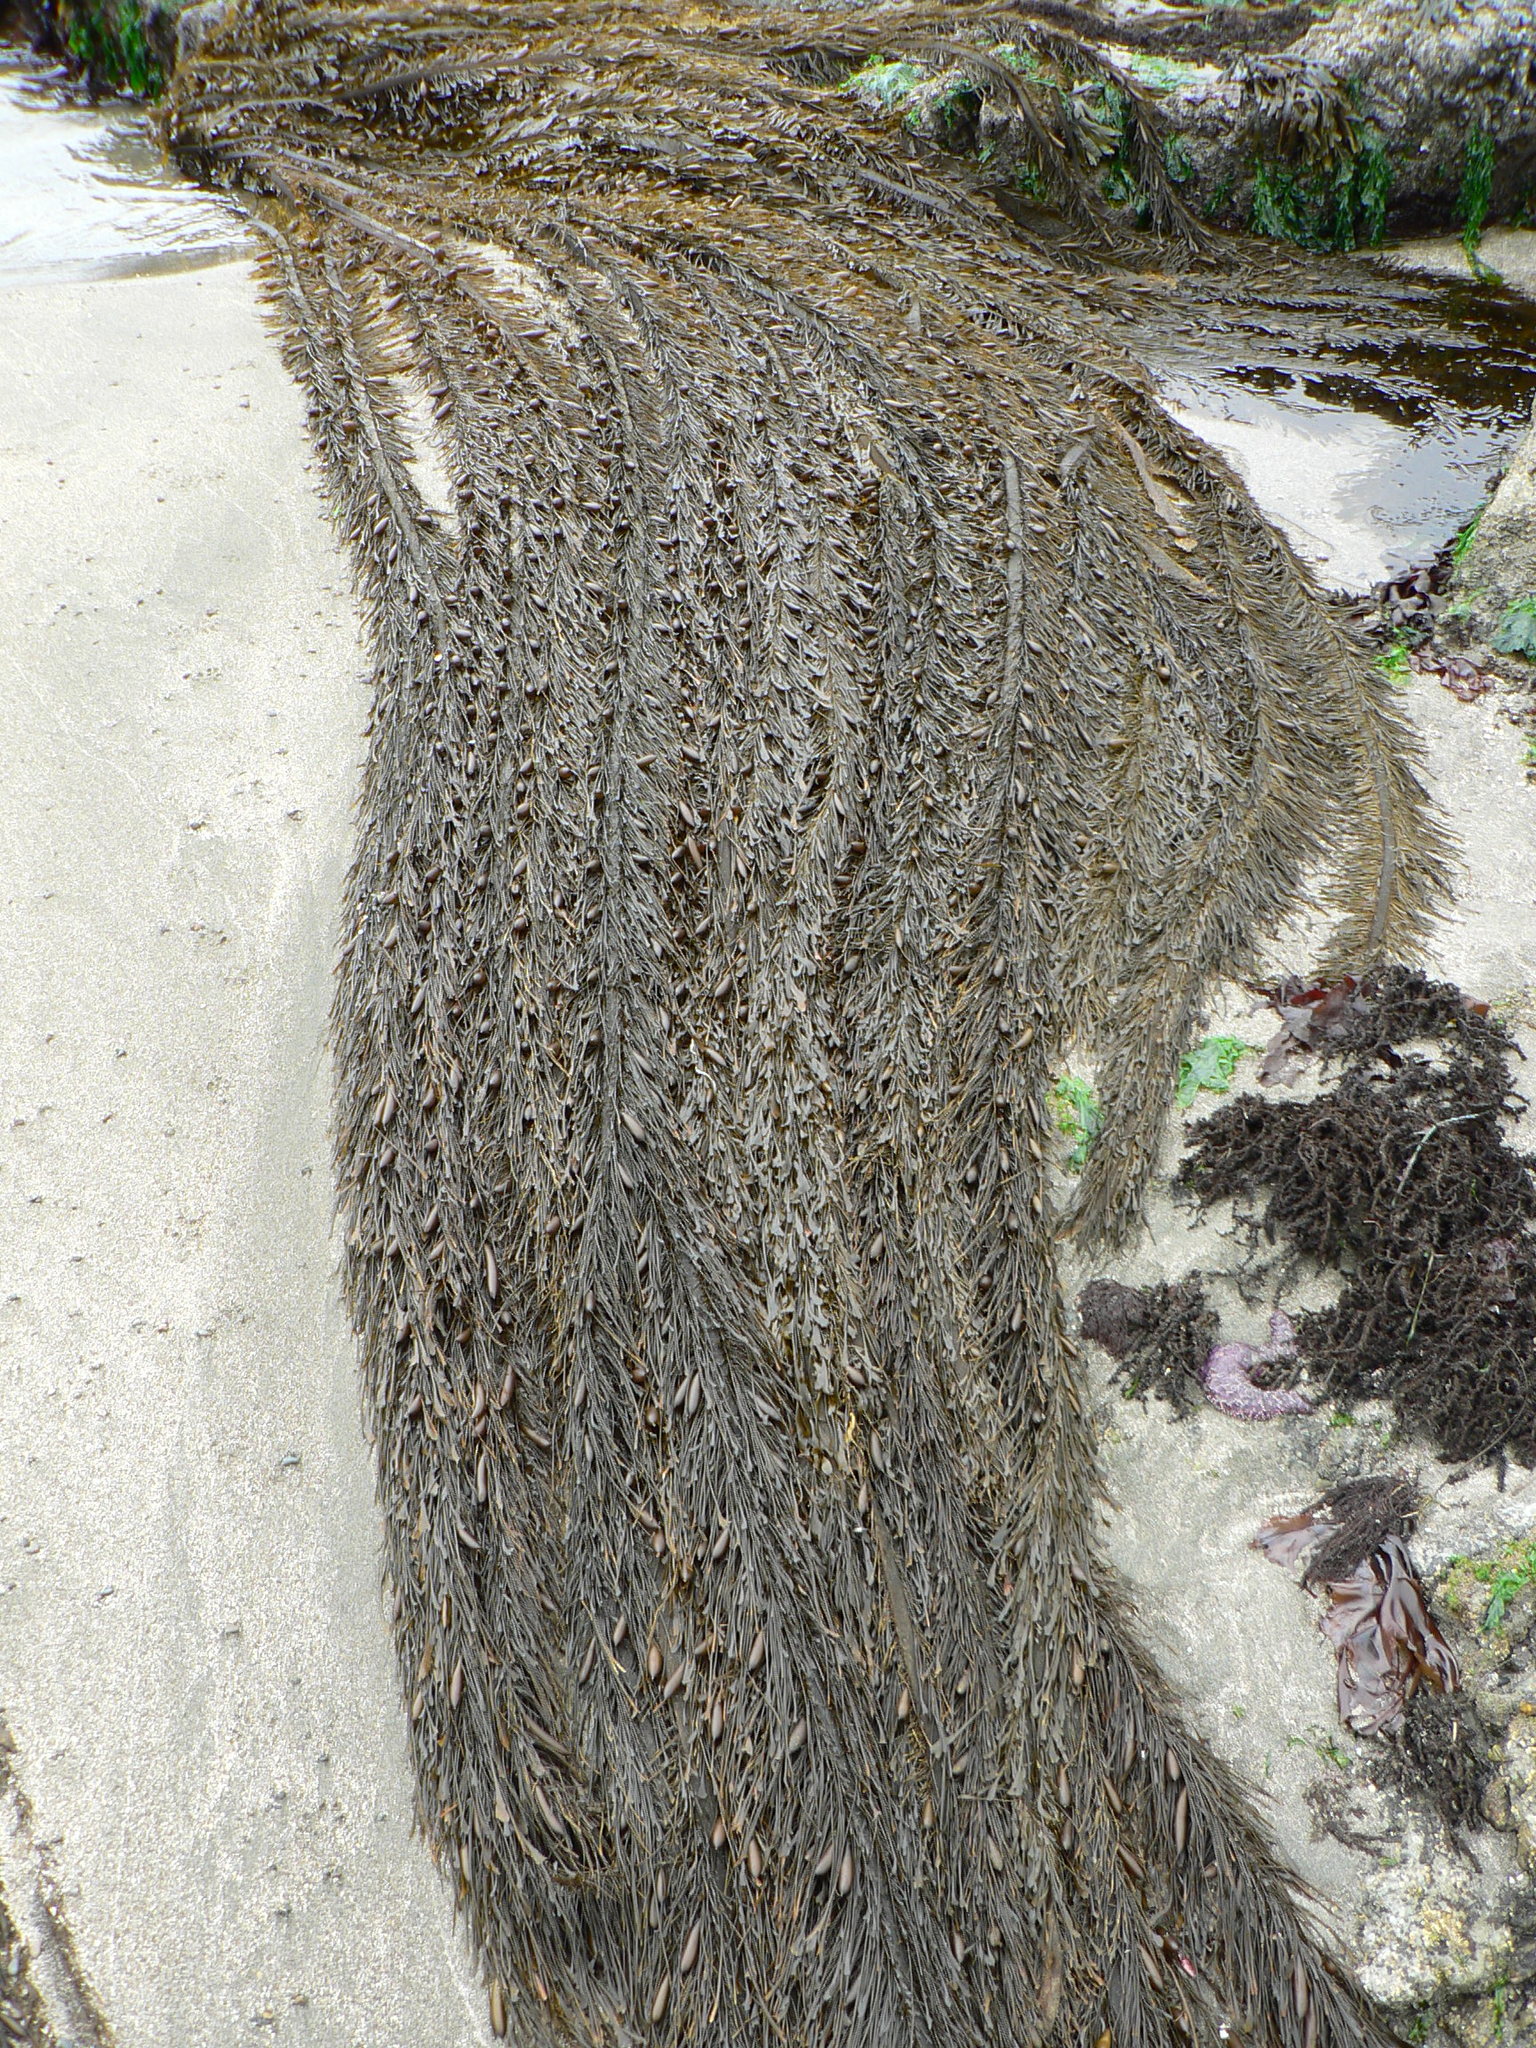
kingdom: Chromista
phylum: Ochrophyta
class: Phaeophyceae
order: Laminariales
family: Lessoniaceae
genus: Egregia
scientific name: Egregia menziesii
